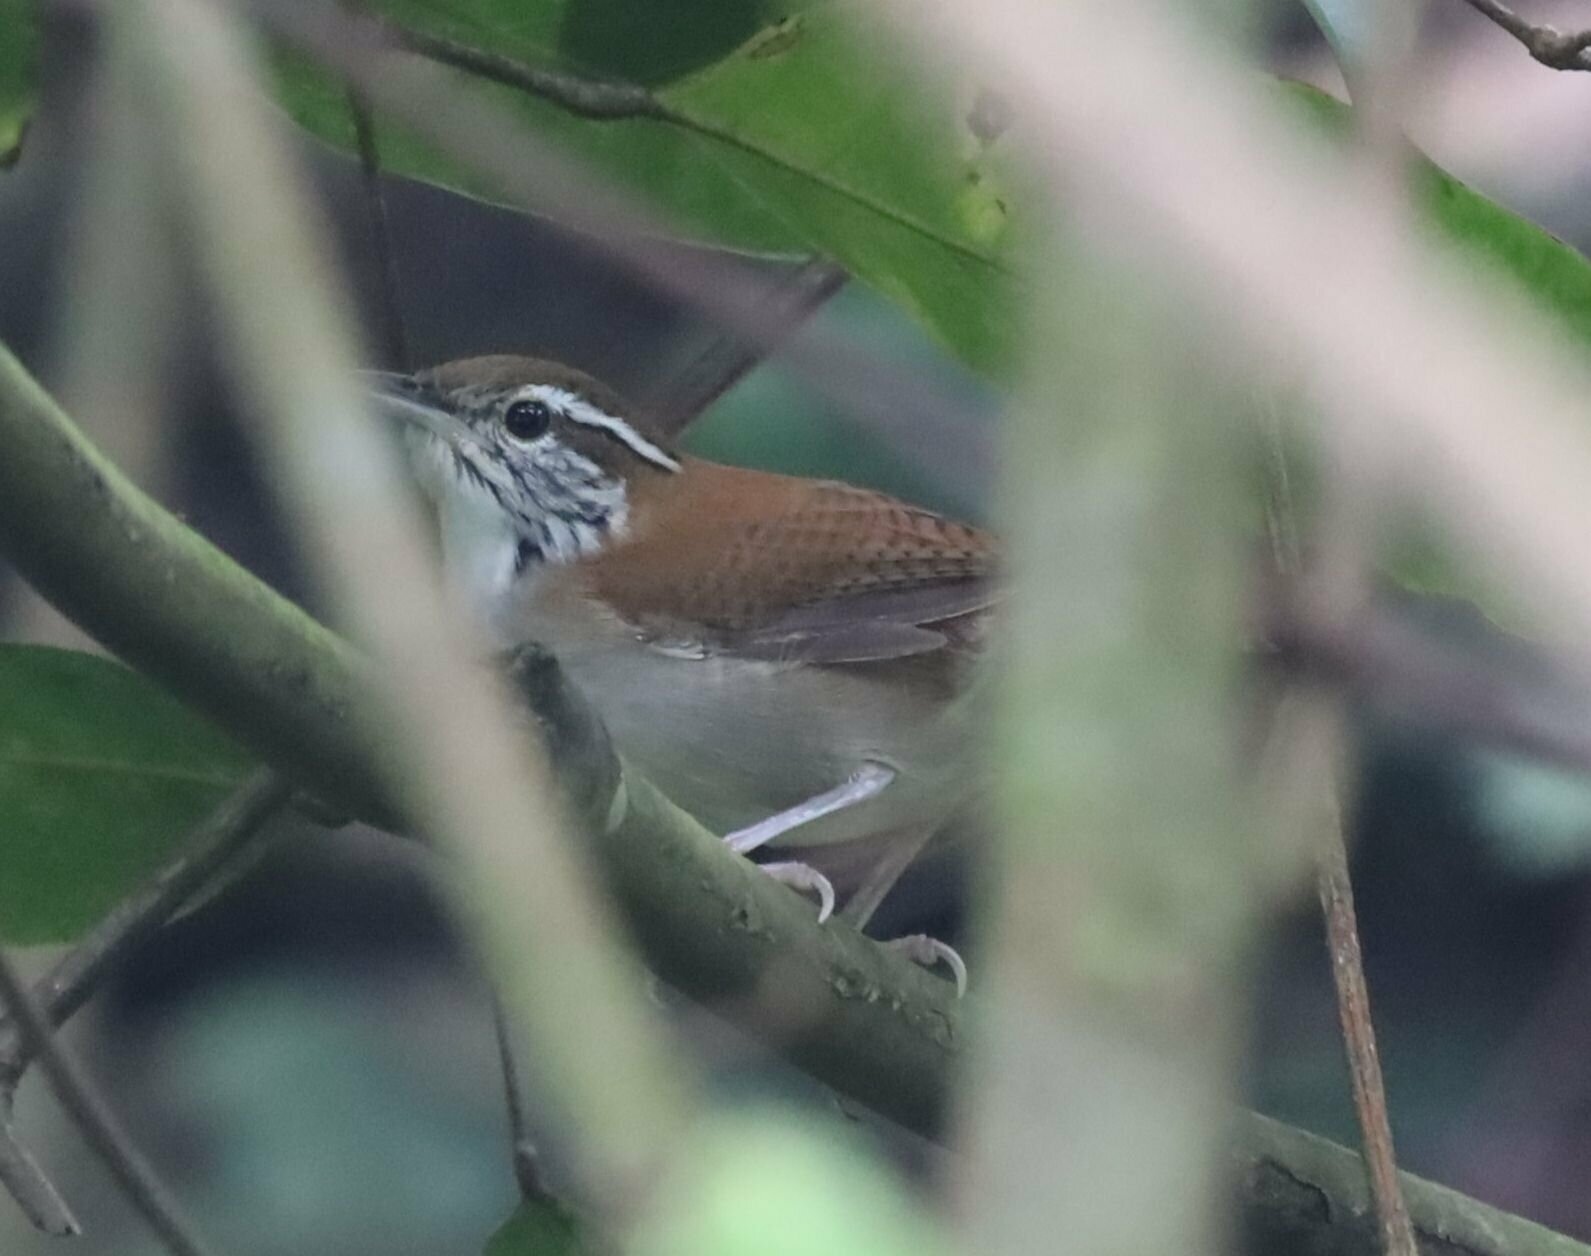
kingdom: Animalia
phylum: Chordata
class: Aves
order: Passeriformes
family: Troglodytidae
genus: Thryophilus
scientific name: Thryophilus rufalbus
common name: Rufous-and-white wren
